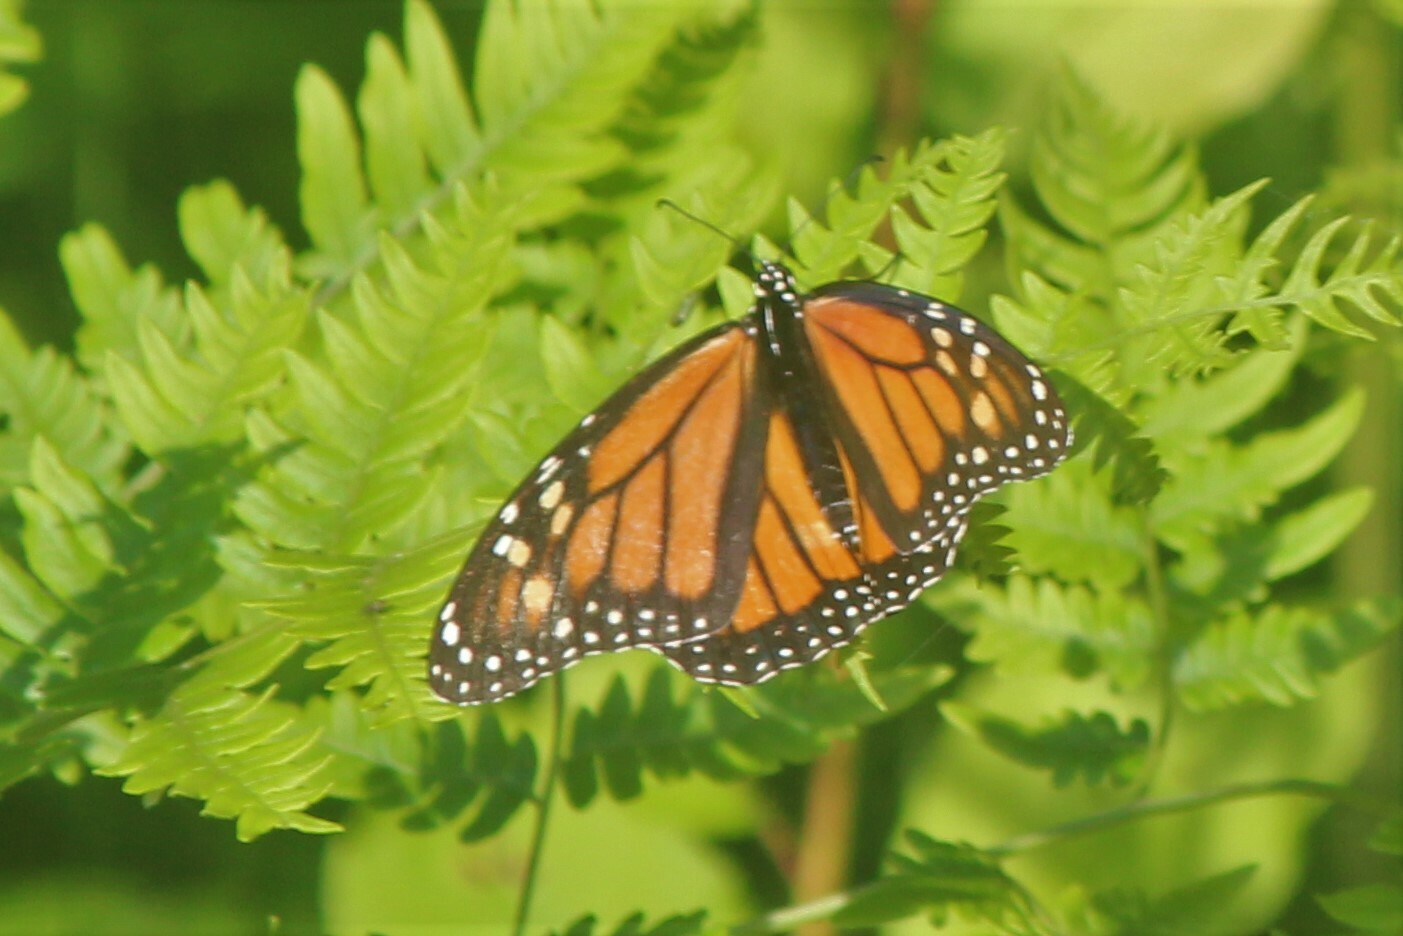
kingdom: Animalia
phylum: Arthropoda
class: Insecta
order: Lepidoptera
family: Nymphalidae
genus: Danaus
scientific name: Danaus plexippus
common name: Monarch
